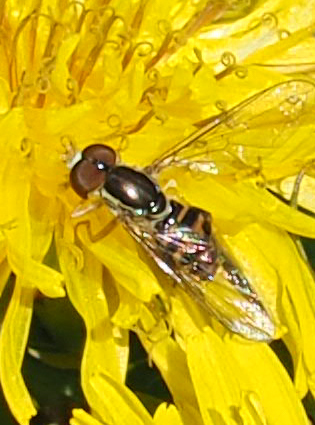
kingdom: Animalia
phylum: Arthropoda
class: Insecta
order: Diptera
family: Syrphidae
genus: Toxomerus
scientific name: Toxomerus geminatus
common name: Eastern calligrapher
